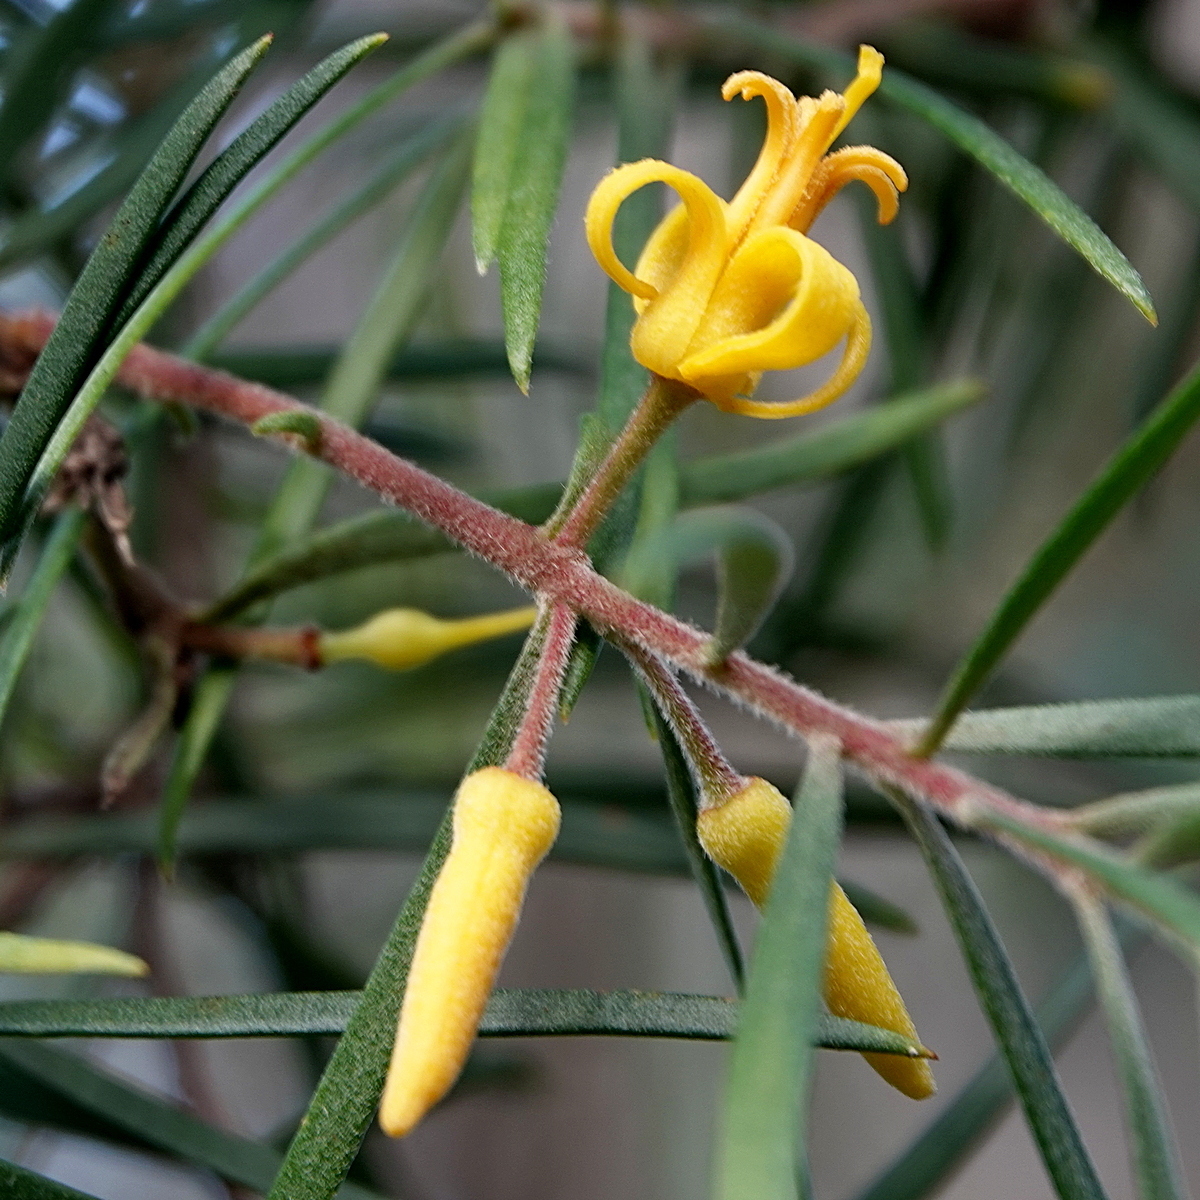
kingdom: Plantae
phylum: Tracheophyta
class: Magnoliopsida
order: Proteales
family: Proteaceae
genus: Persoonia
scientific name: Persoonia linearis
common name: Narrow-leaf geebung
